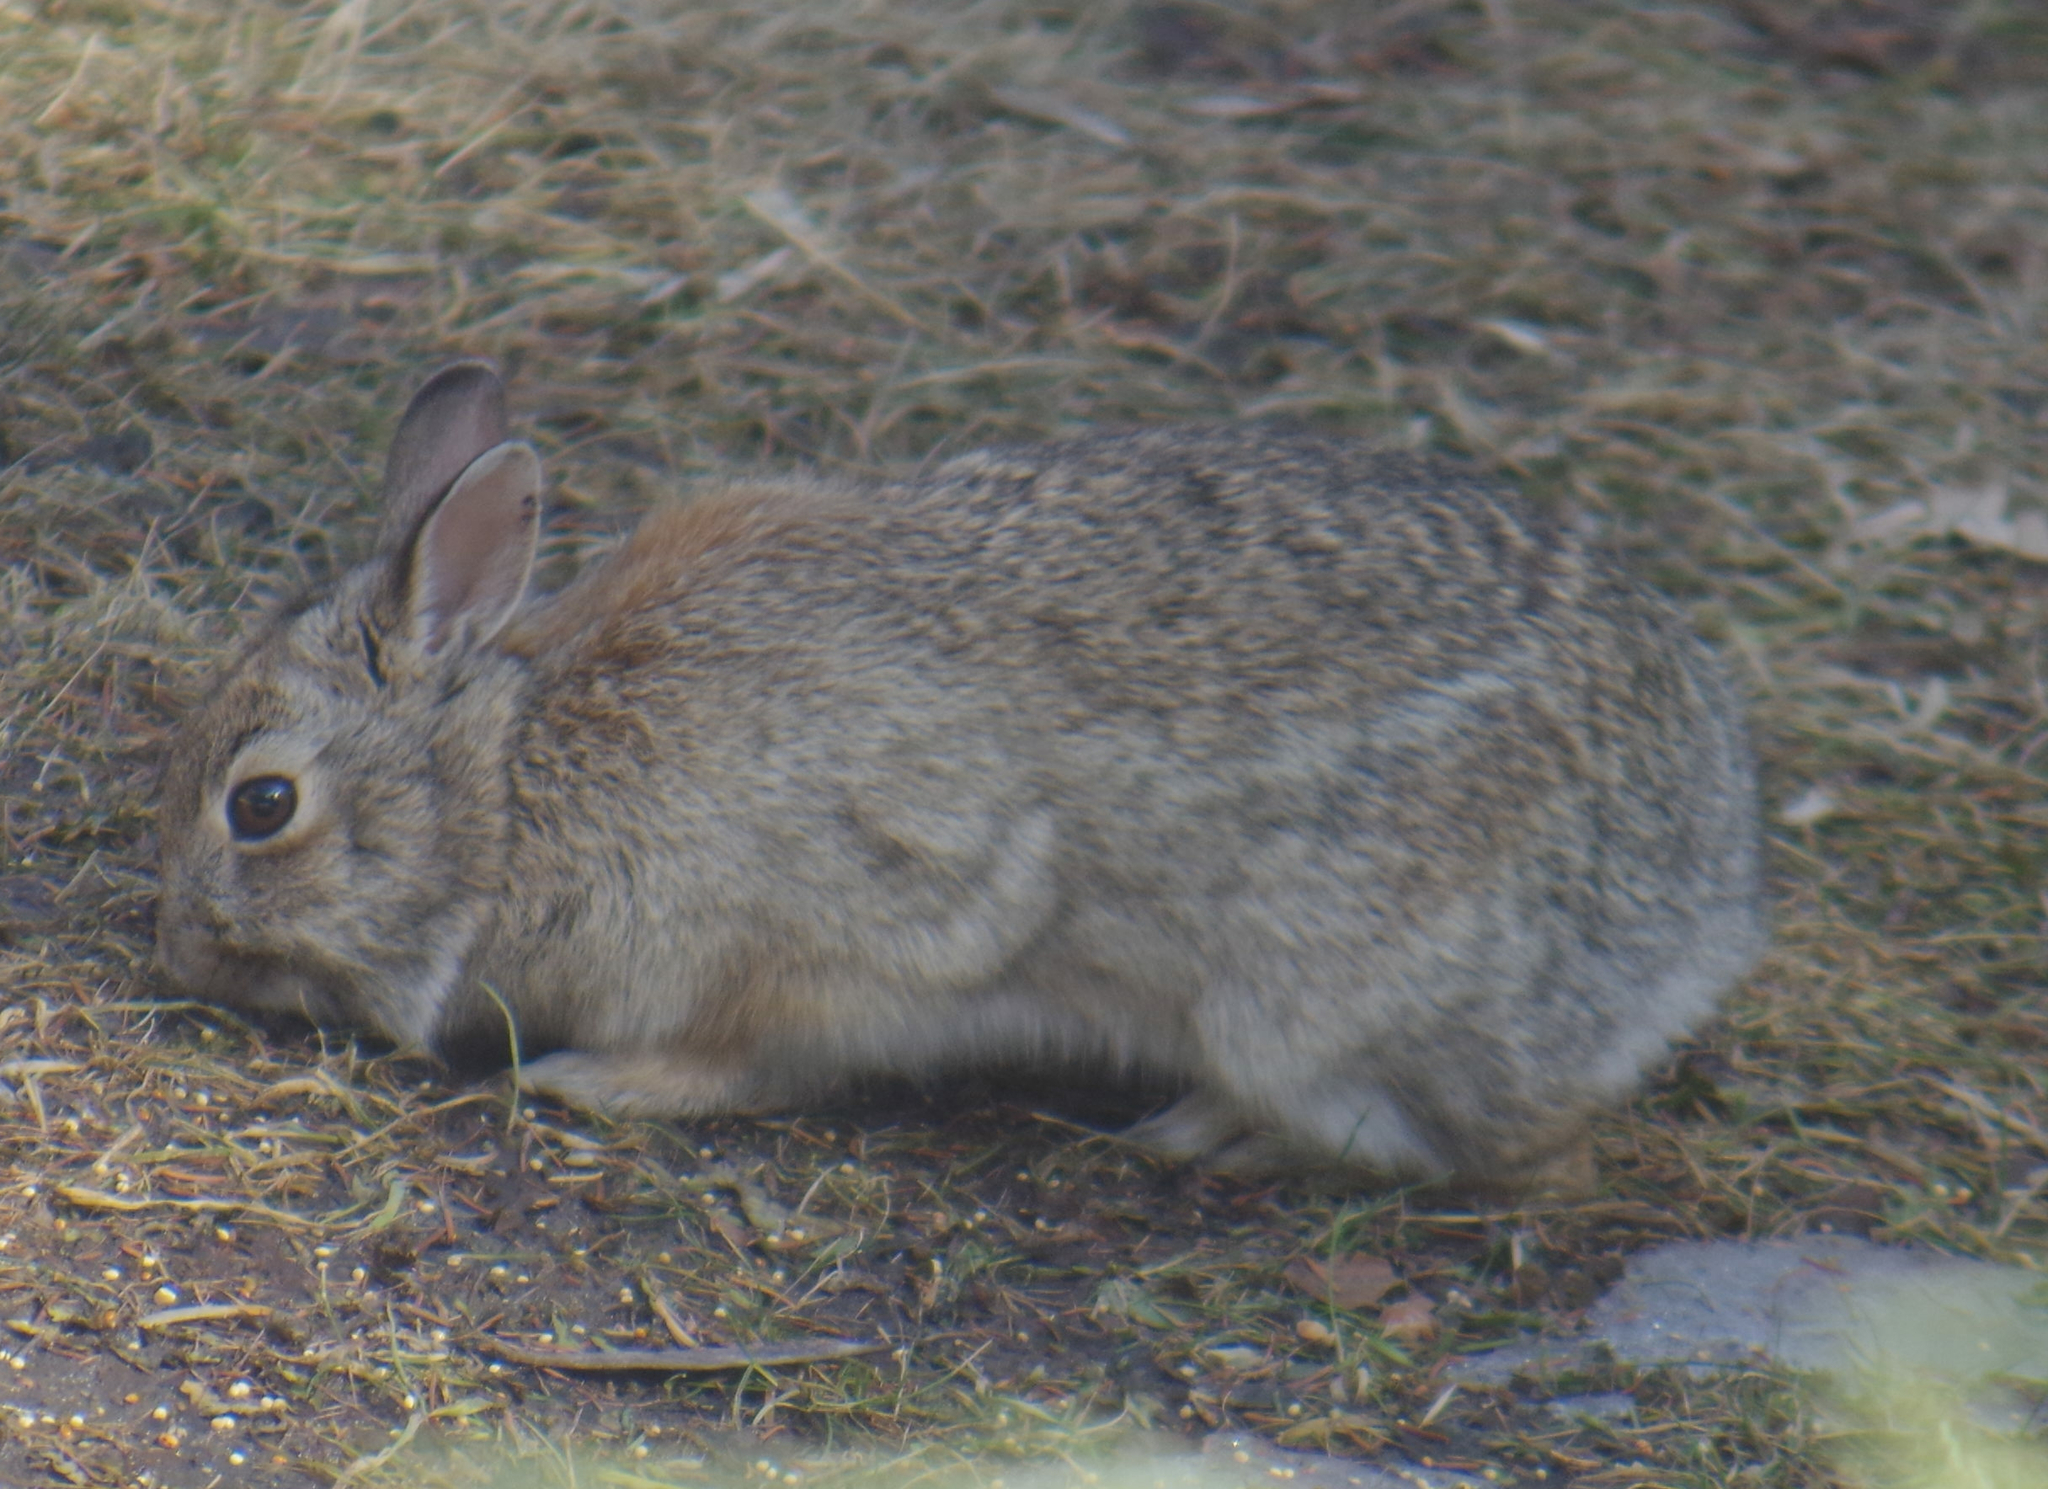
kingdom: Animalia
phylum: Chordata
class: Mammalia
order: Lagomorpha
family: Leporidae
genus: Sylvilagus
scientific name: Sylvilagus floridanus
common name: Eastern cottontail
